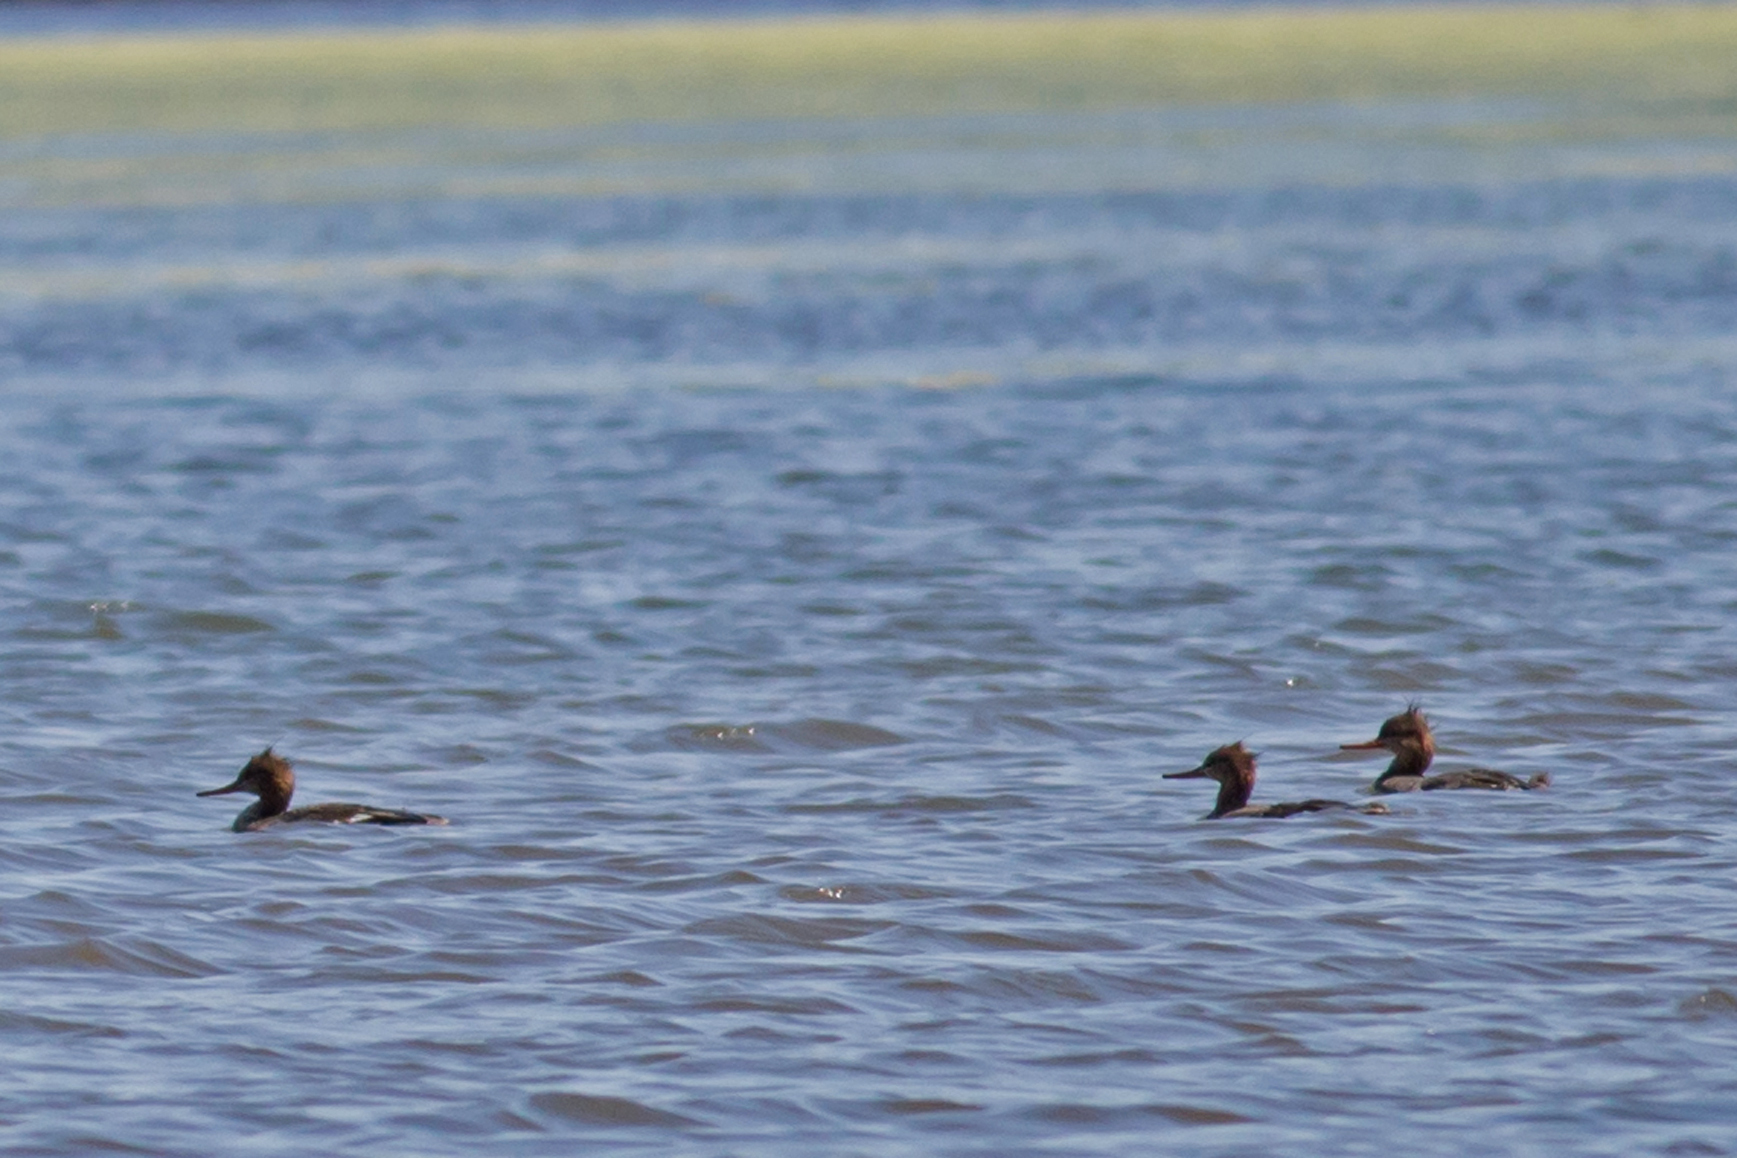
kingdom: Animalia
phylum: Chordata
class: Aves
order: Anseriformes
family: Anatidae
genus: Mergus
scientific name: Mergus serrator
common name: Red-breasted merganser
